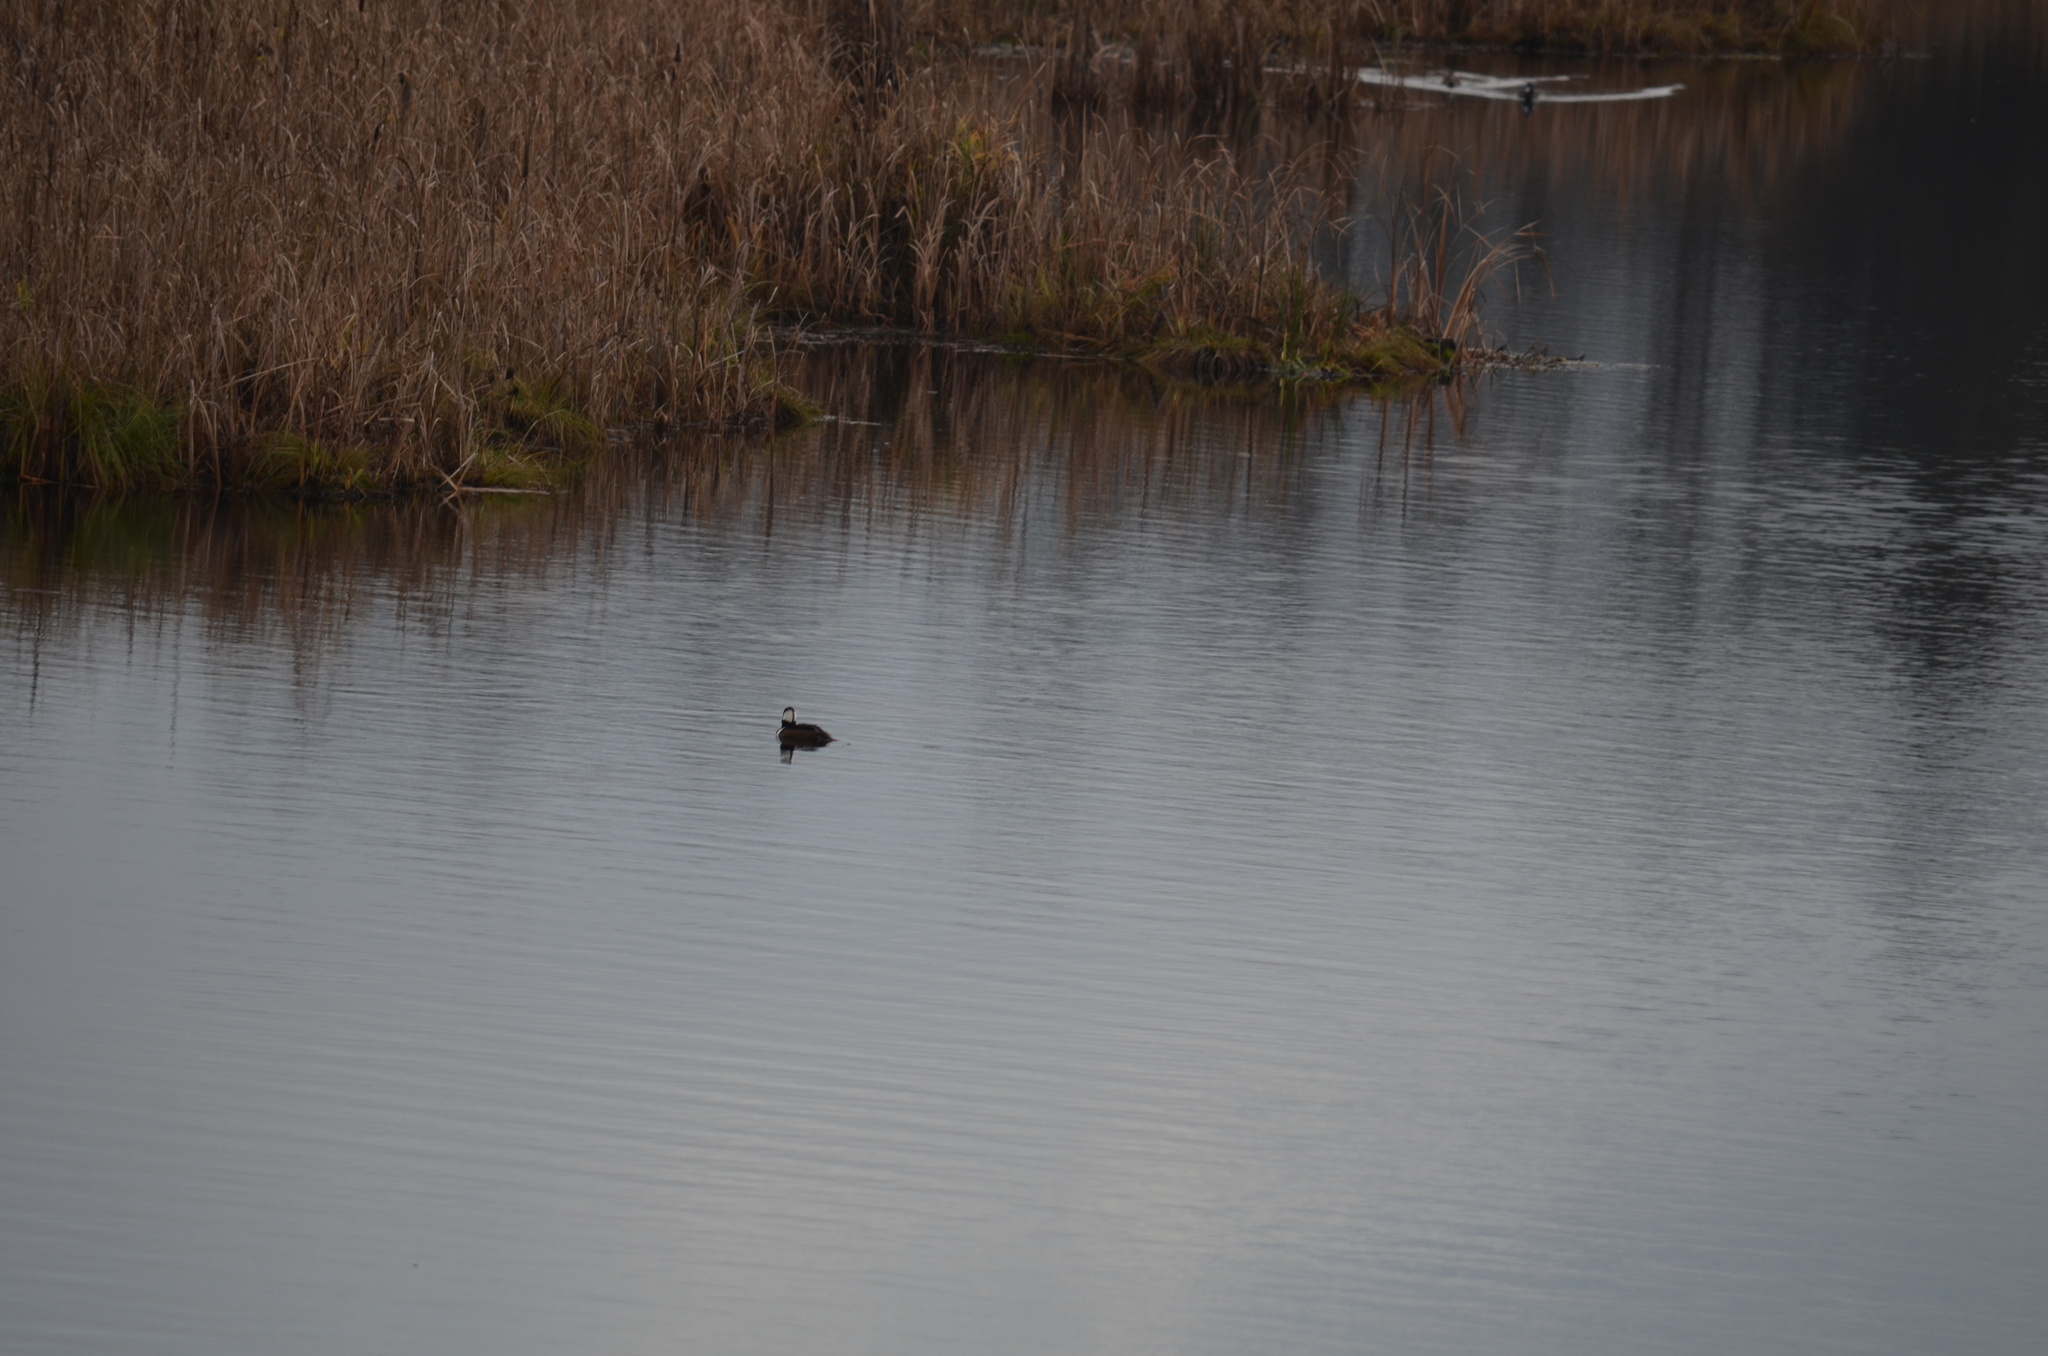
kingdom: Animalia
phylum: Chordata
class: Aves
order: Anseriformes
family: Anatidae
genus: Lophodytes
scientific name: Lophodytes cucullatus
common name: Hooded merganser
